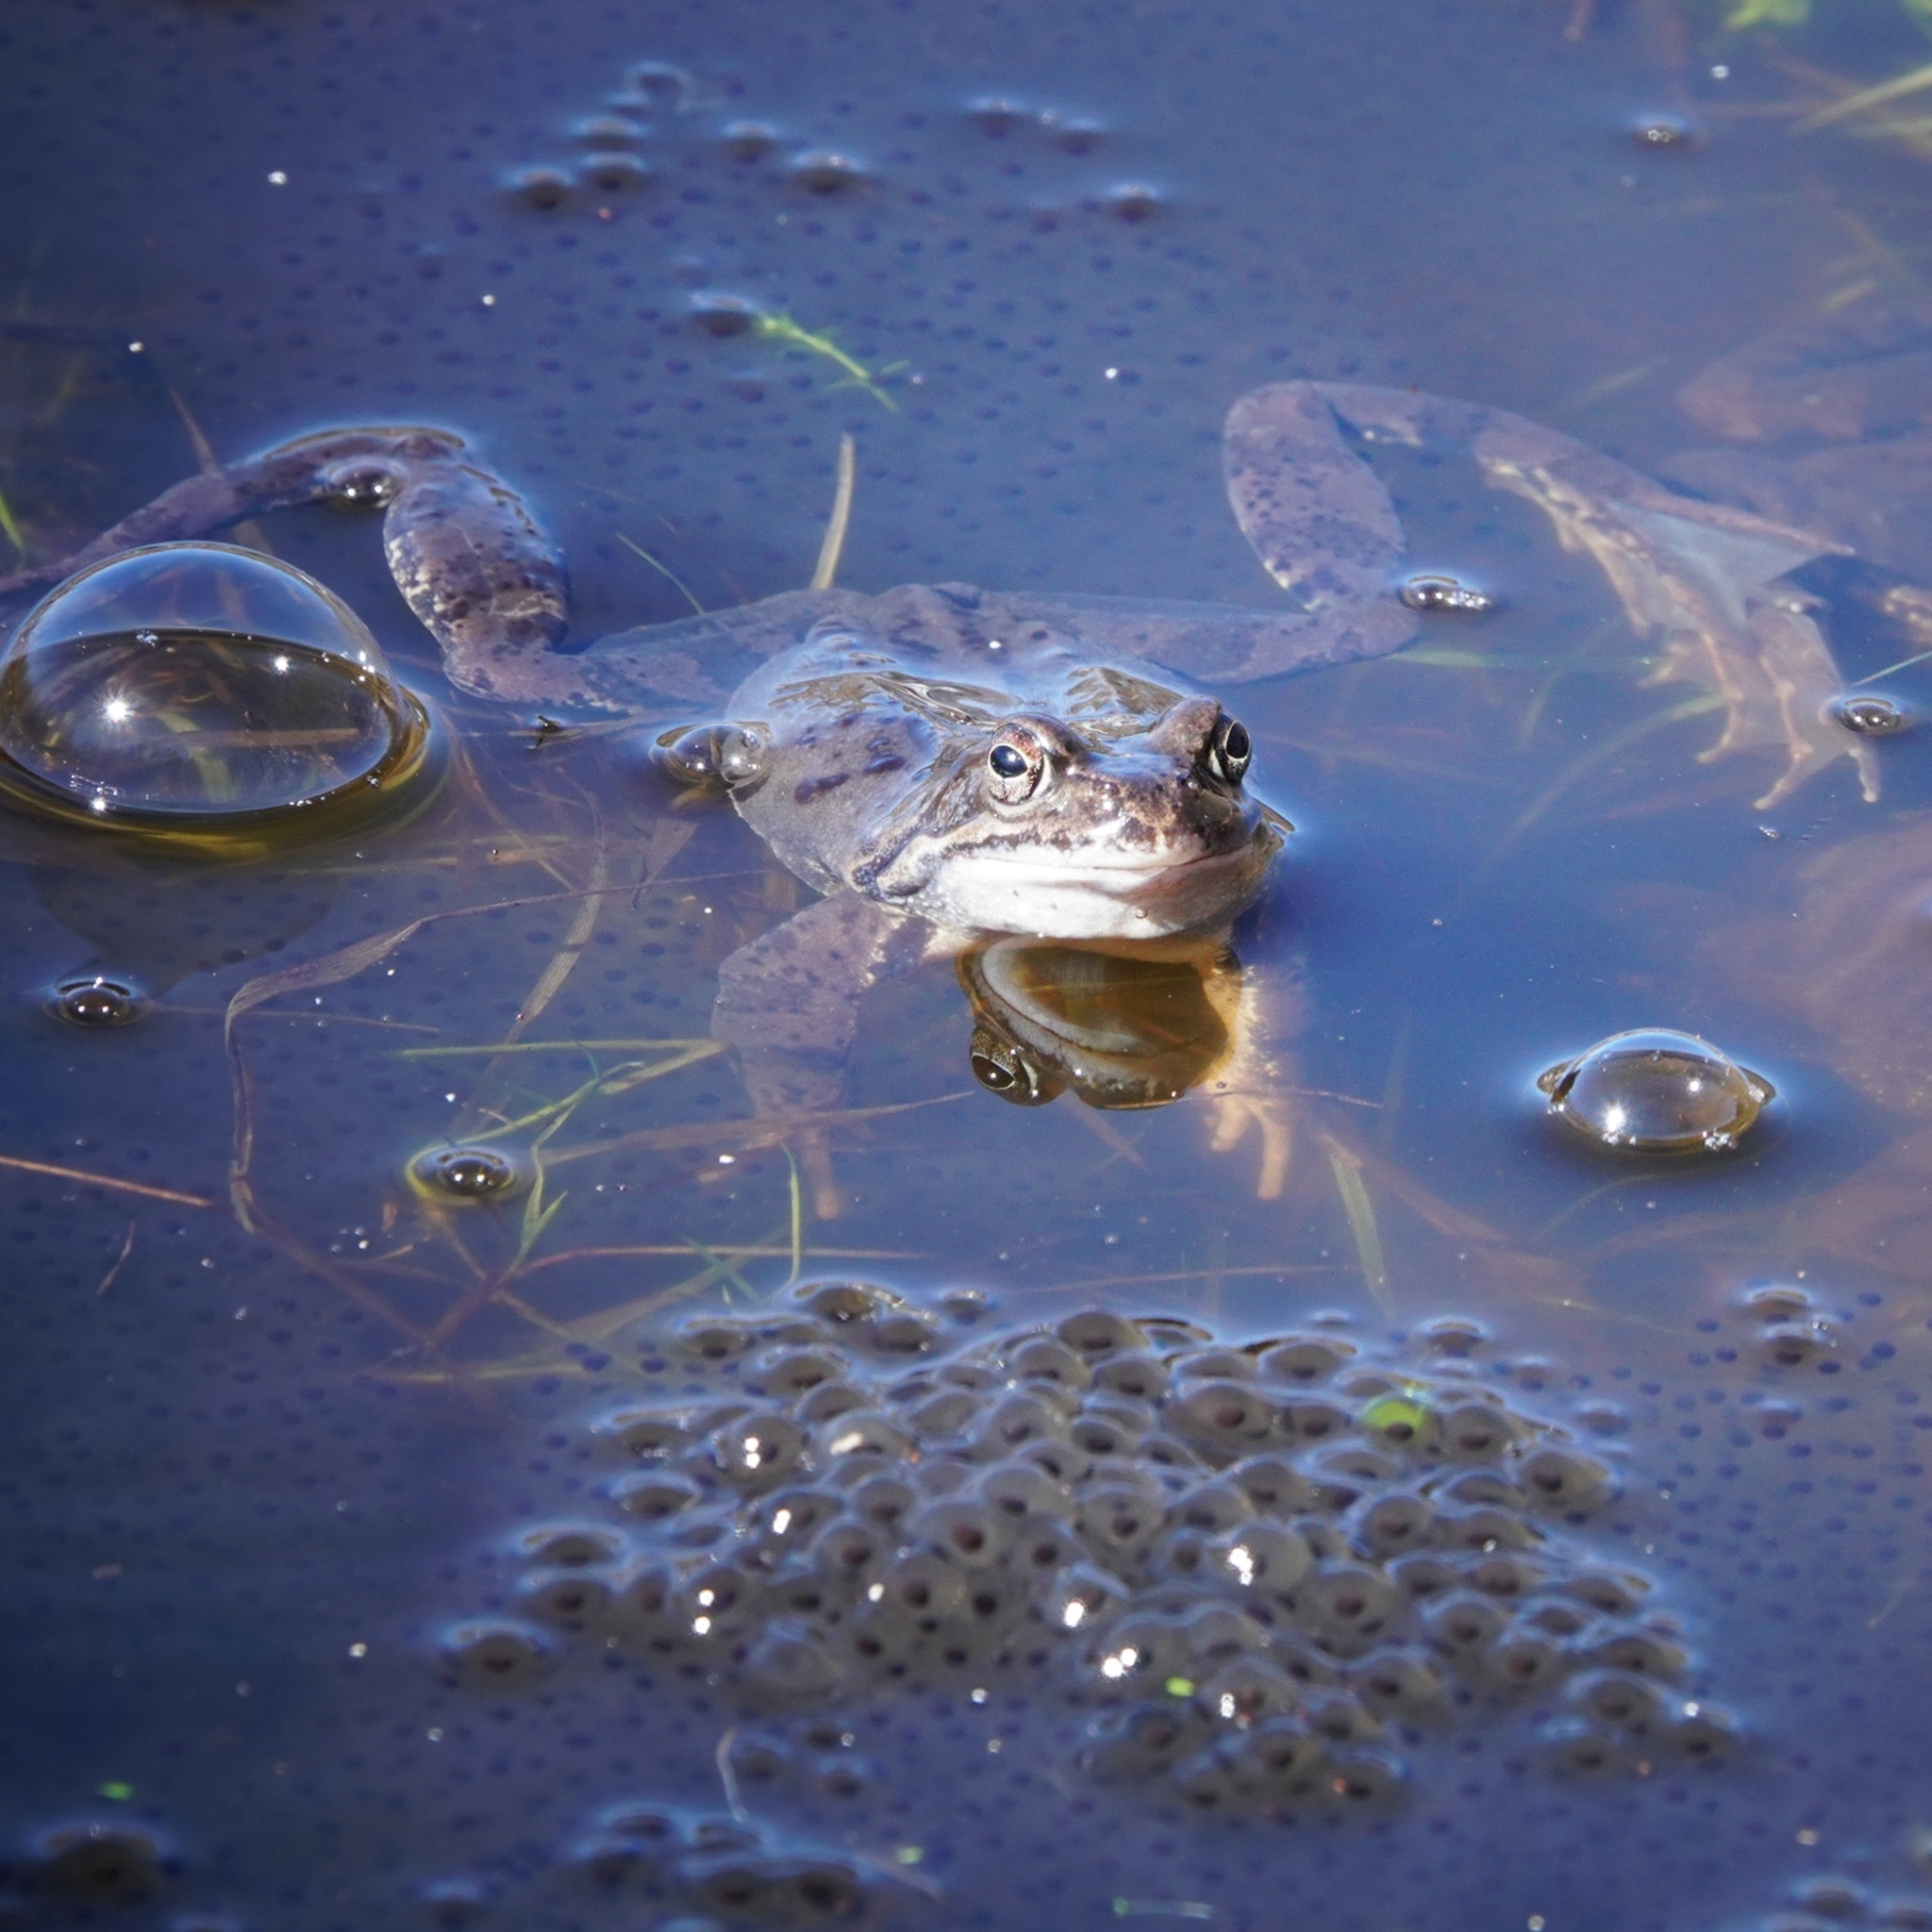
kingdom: Animalia
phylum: Chordata
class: Amphibia
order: Anura
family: Ranidae
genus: Rana
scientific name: Rana temporaria
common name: Common frog
